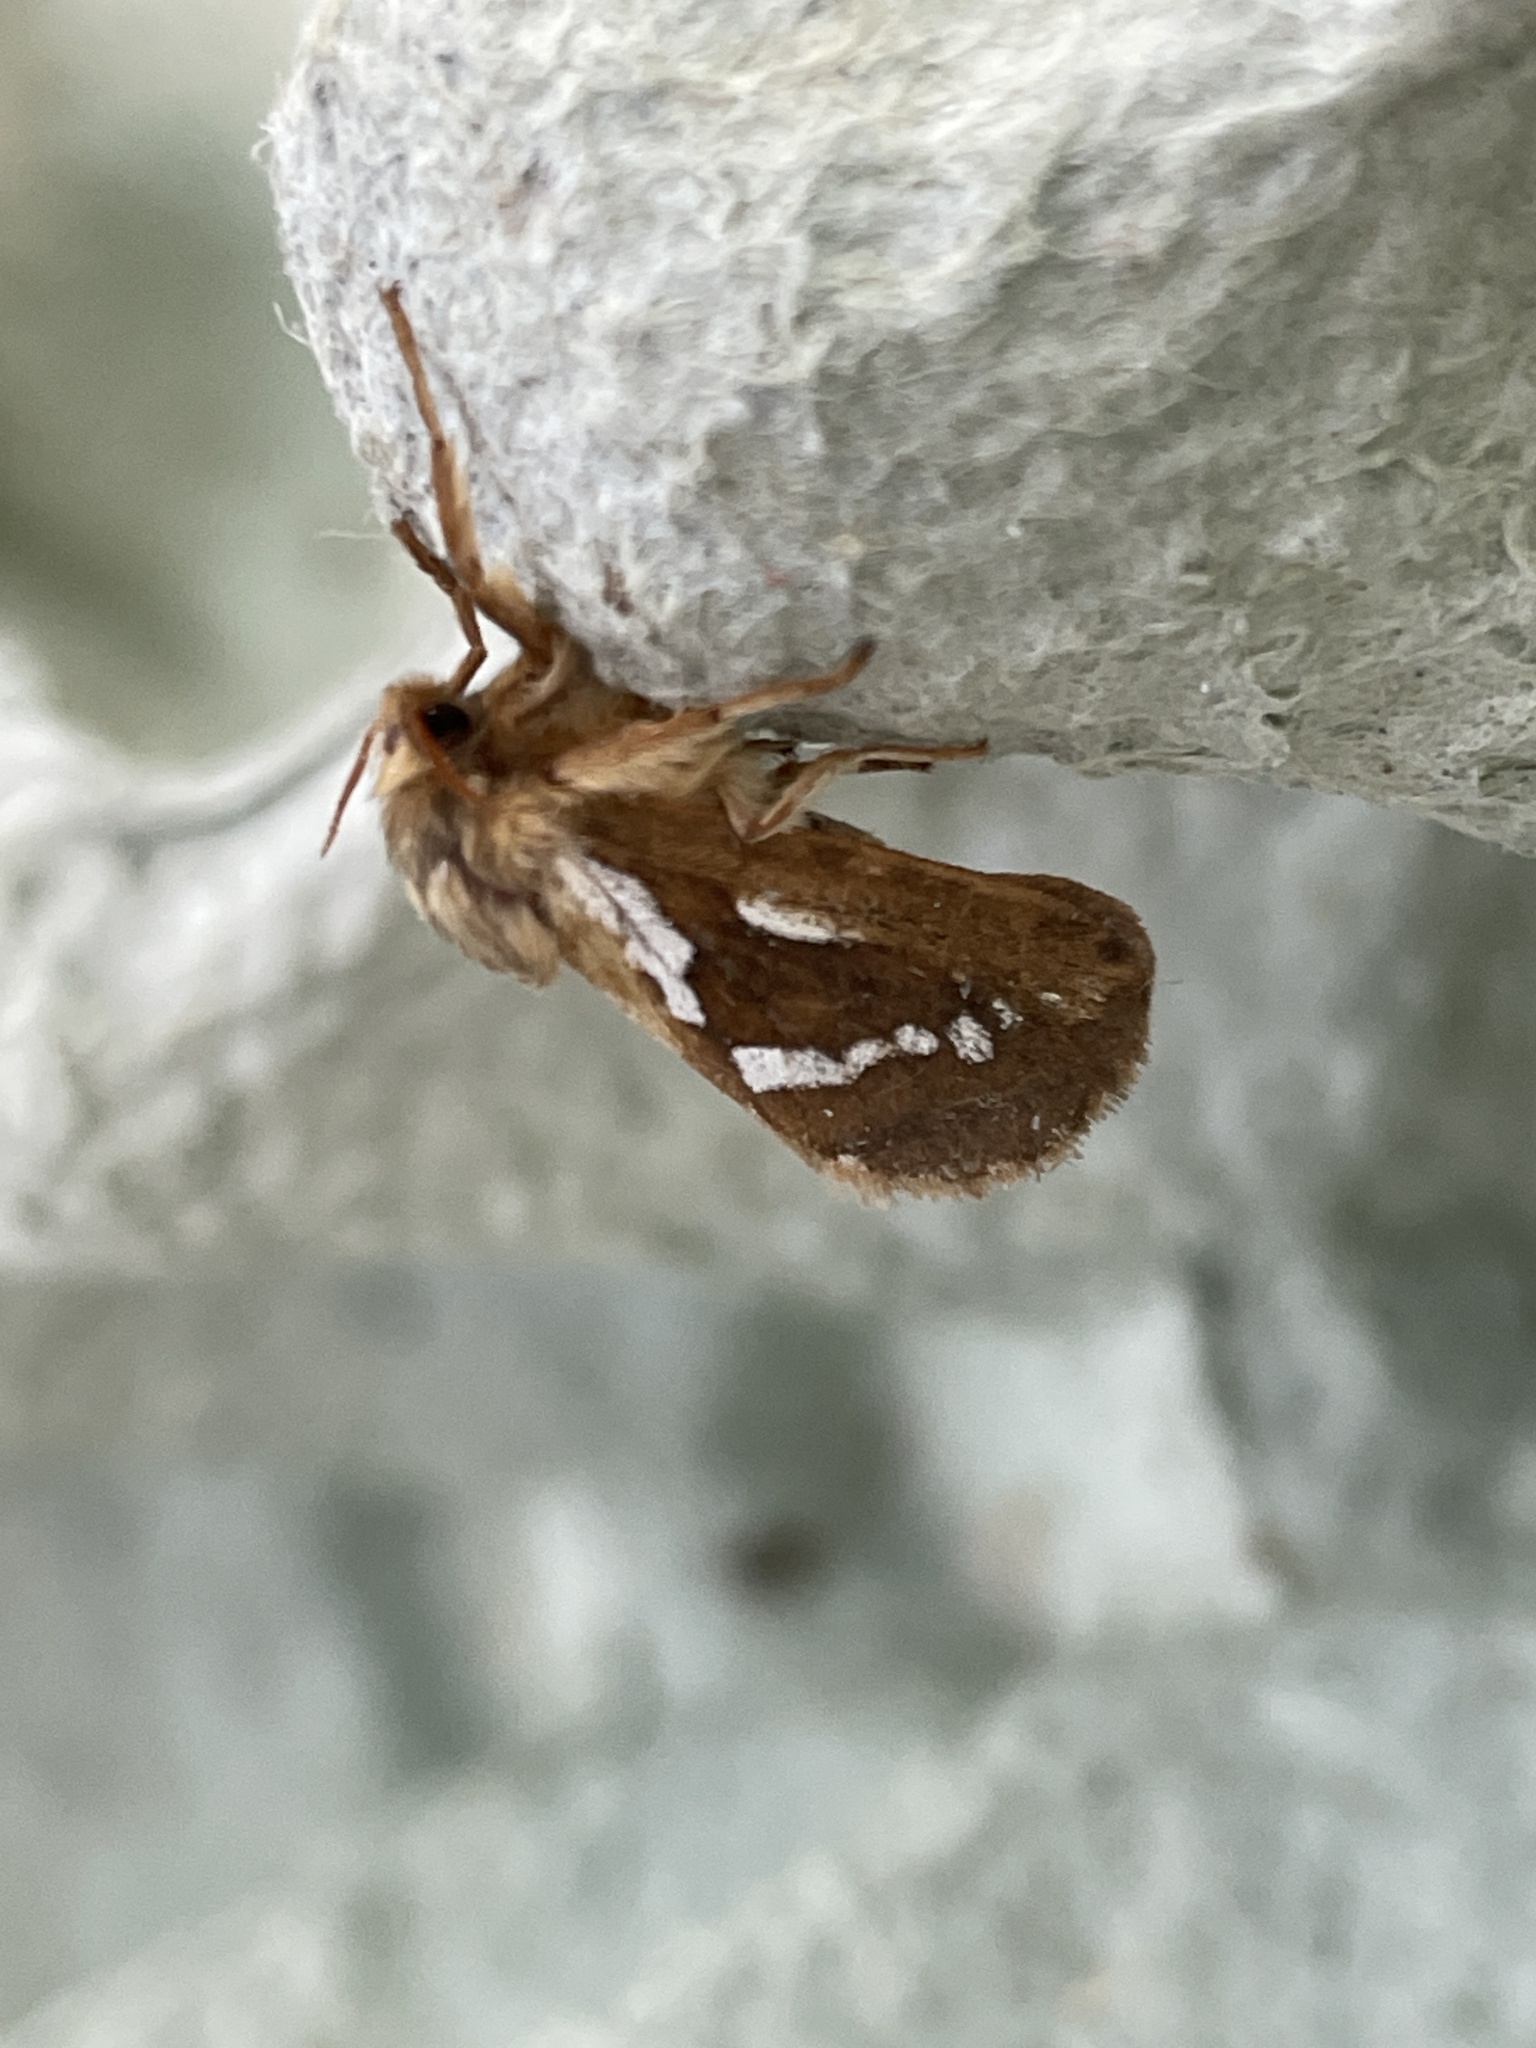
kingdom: Animalia
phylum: Arthropoda
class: Insecta
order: Lepidoptera
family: Hepialidae
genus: Korscheltellus
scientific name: Korscheltellus lupulina
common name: Common swift
